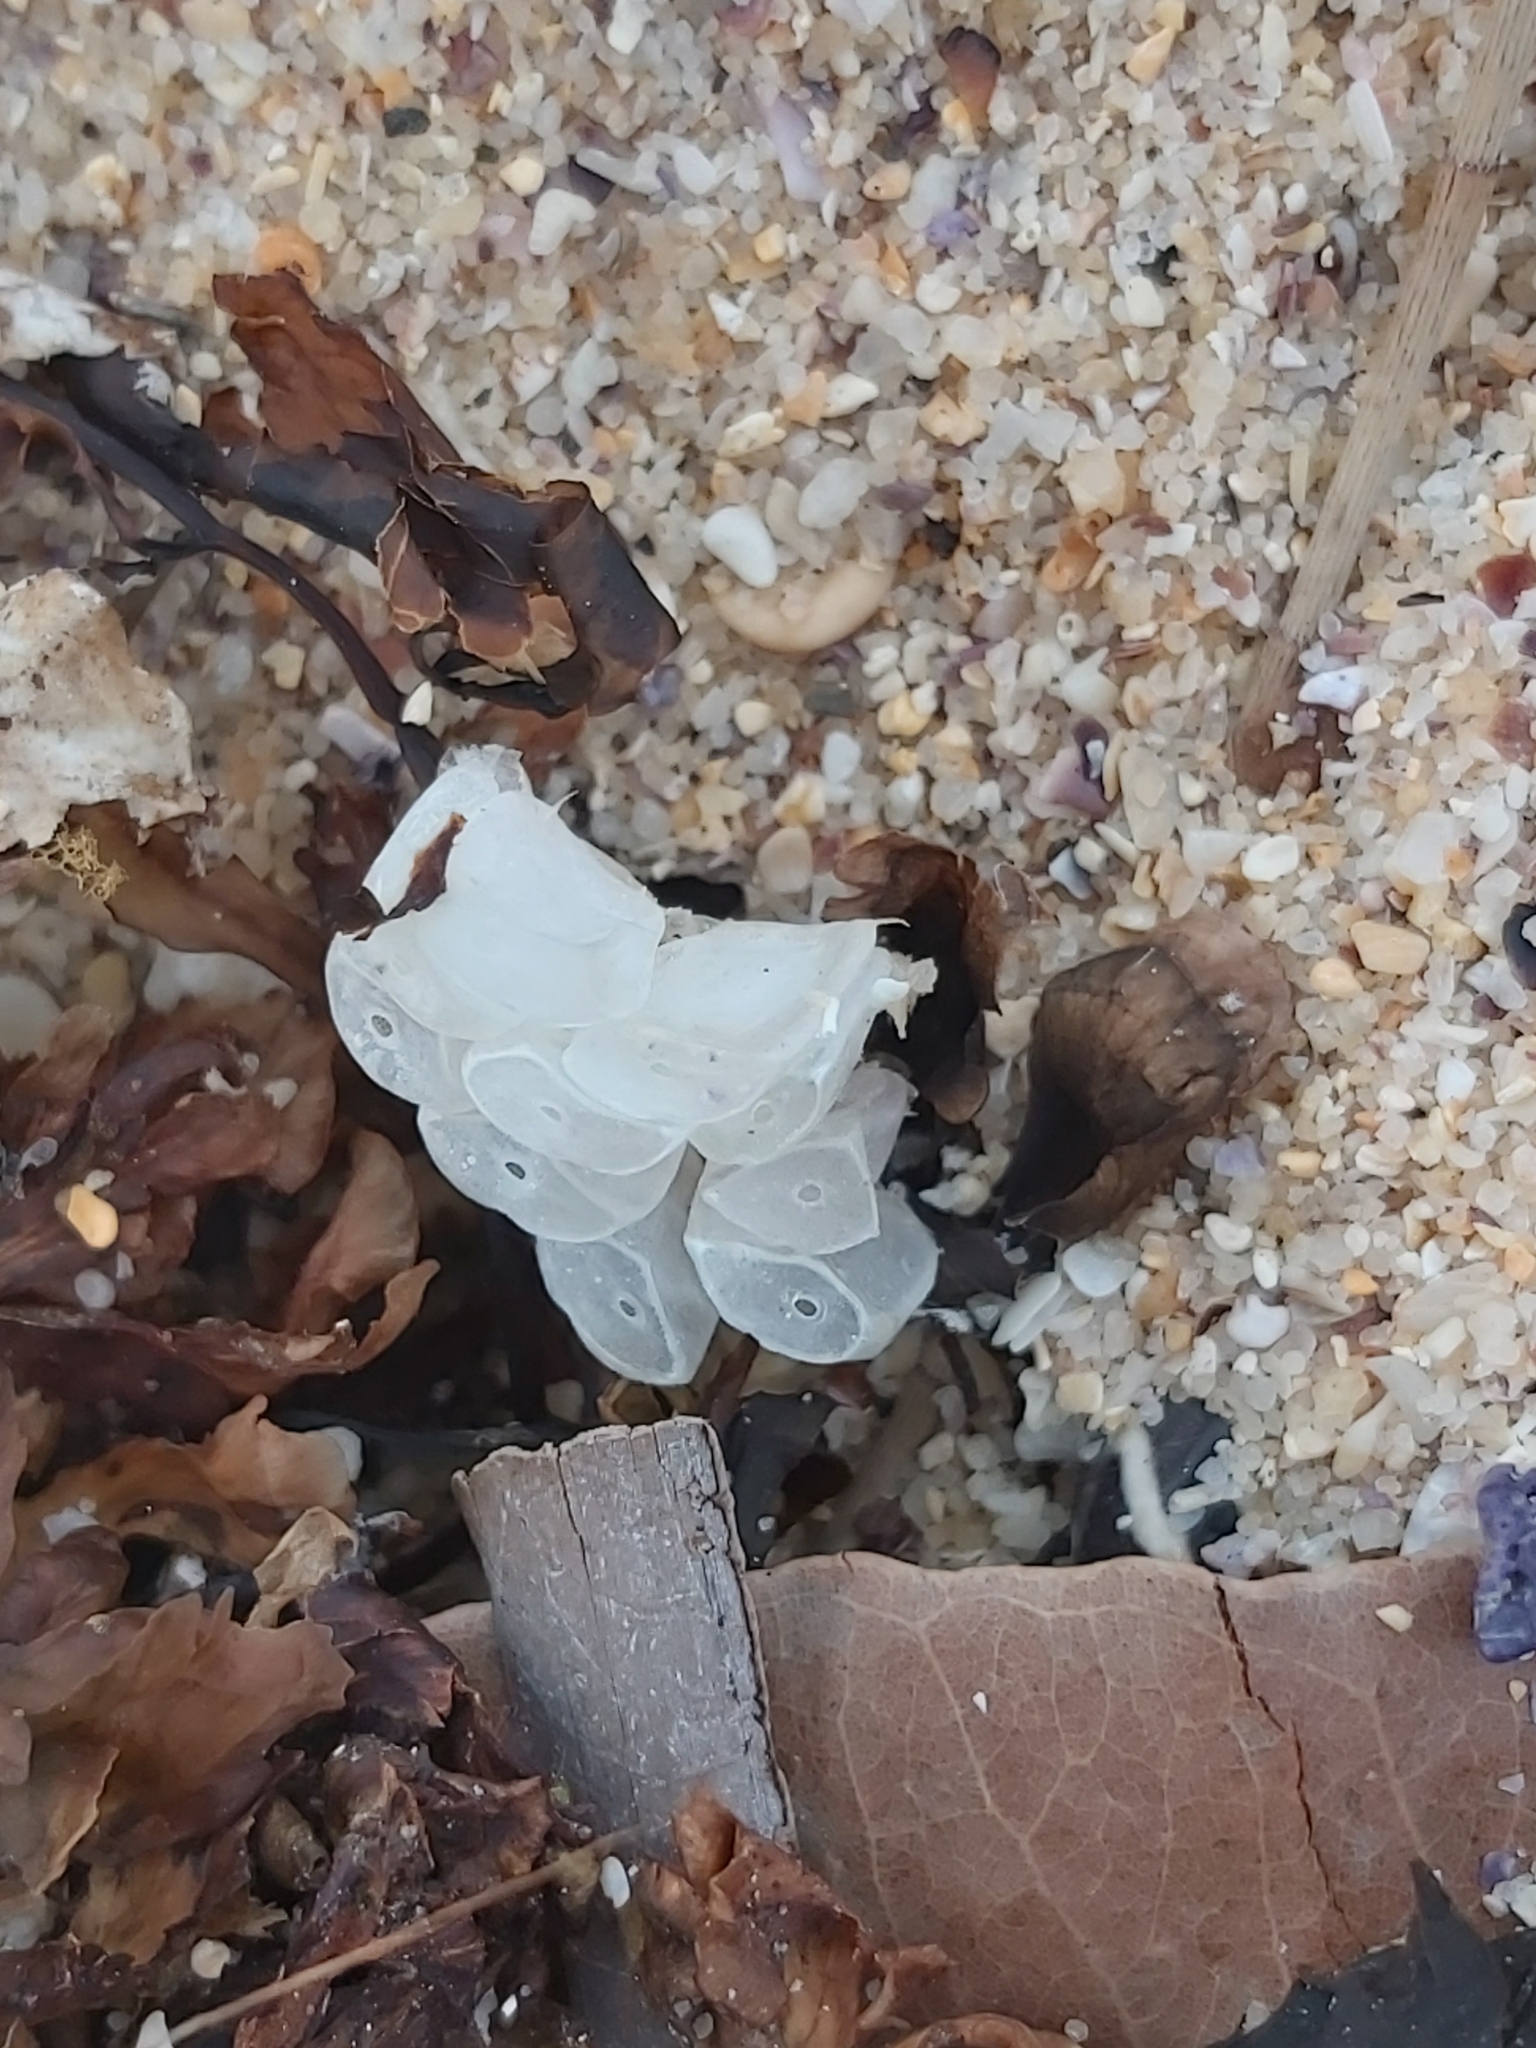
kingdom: Animalia
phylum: Mollusca
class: Gastropoda
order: Neogastropoda
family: Muricidae
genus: Dicathais
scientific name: Dicathais orbita
